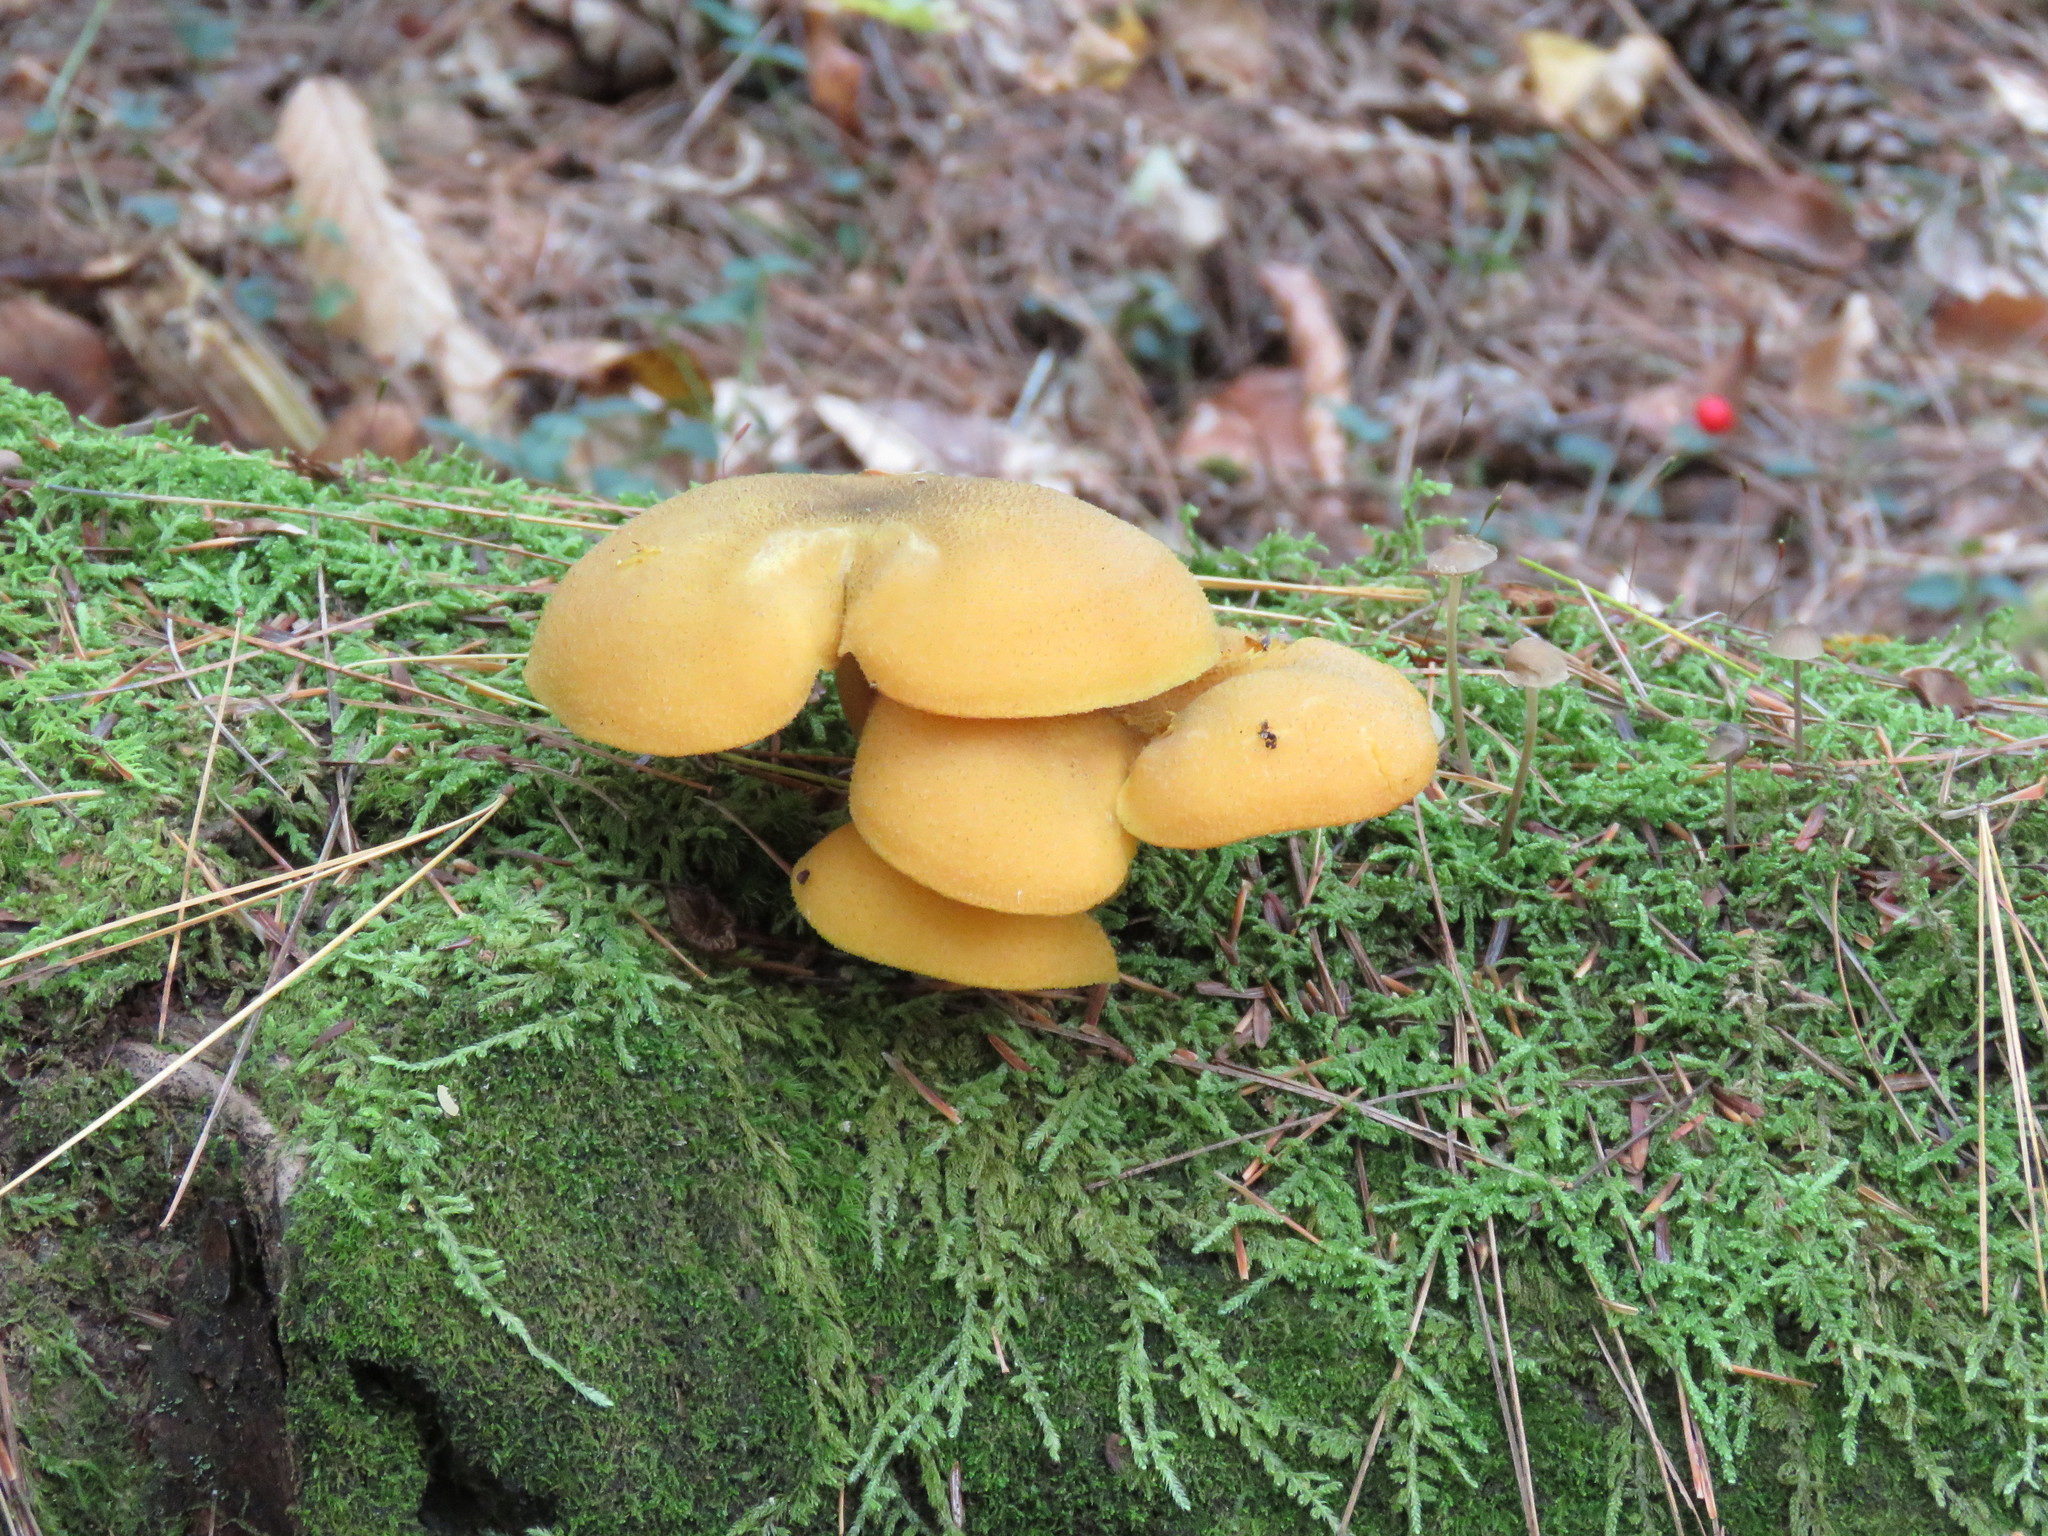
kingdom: Fungi
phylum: Basidiomycota
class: Agaricomycetes
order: Agaricales
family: Tricholomataceae
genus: Tricholomopsis
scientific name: Tricholomopsis decora
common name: Prunes and custard
